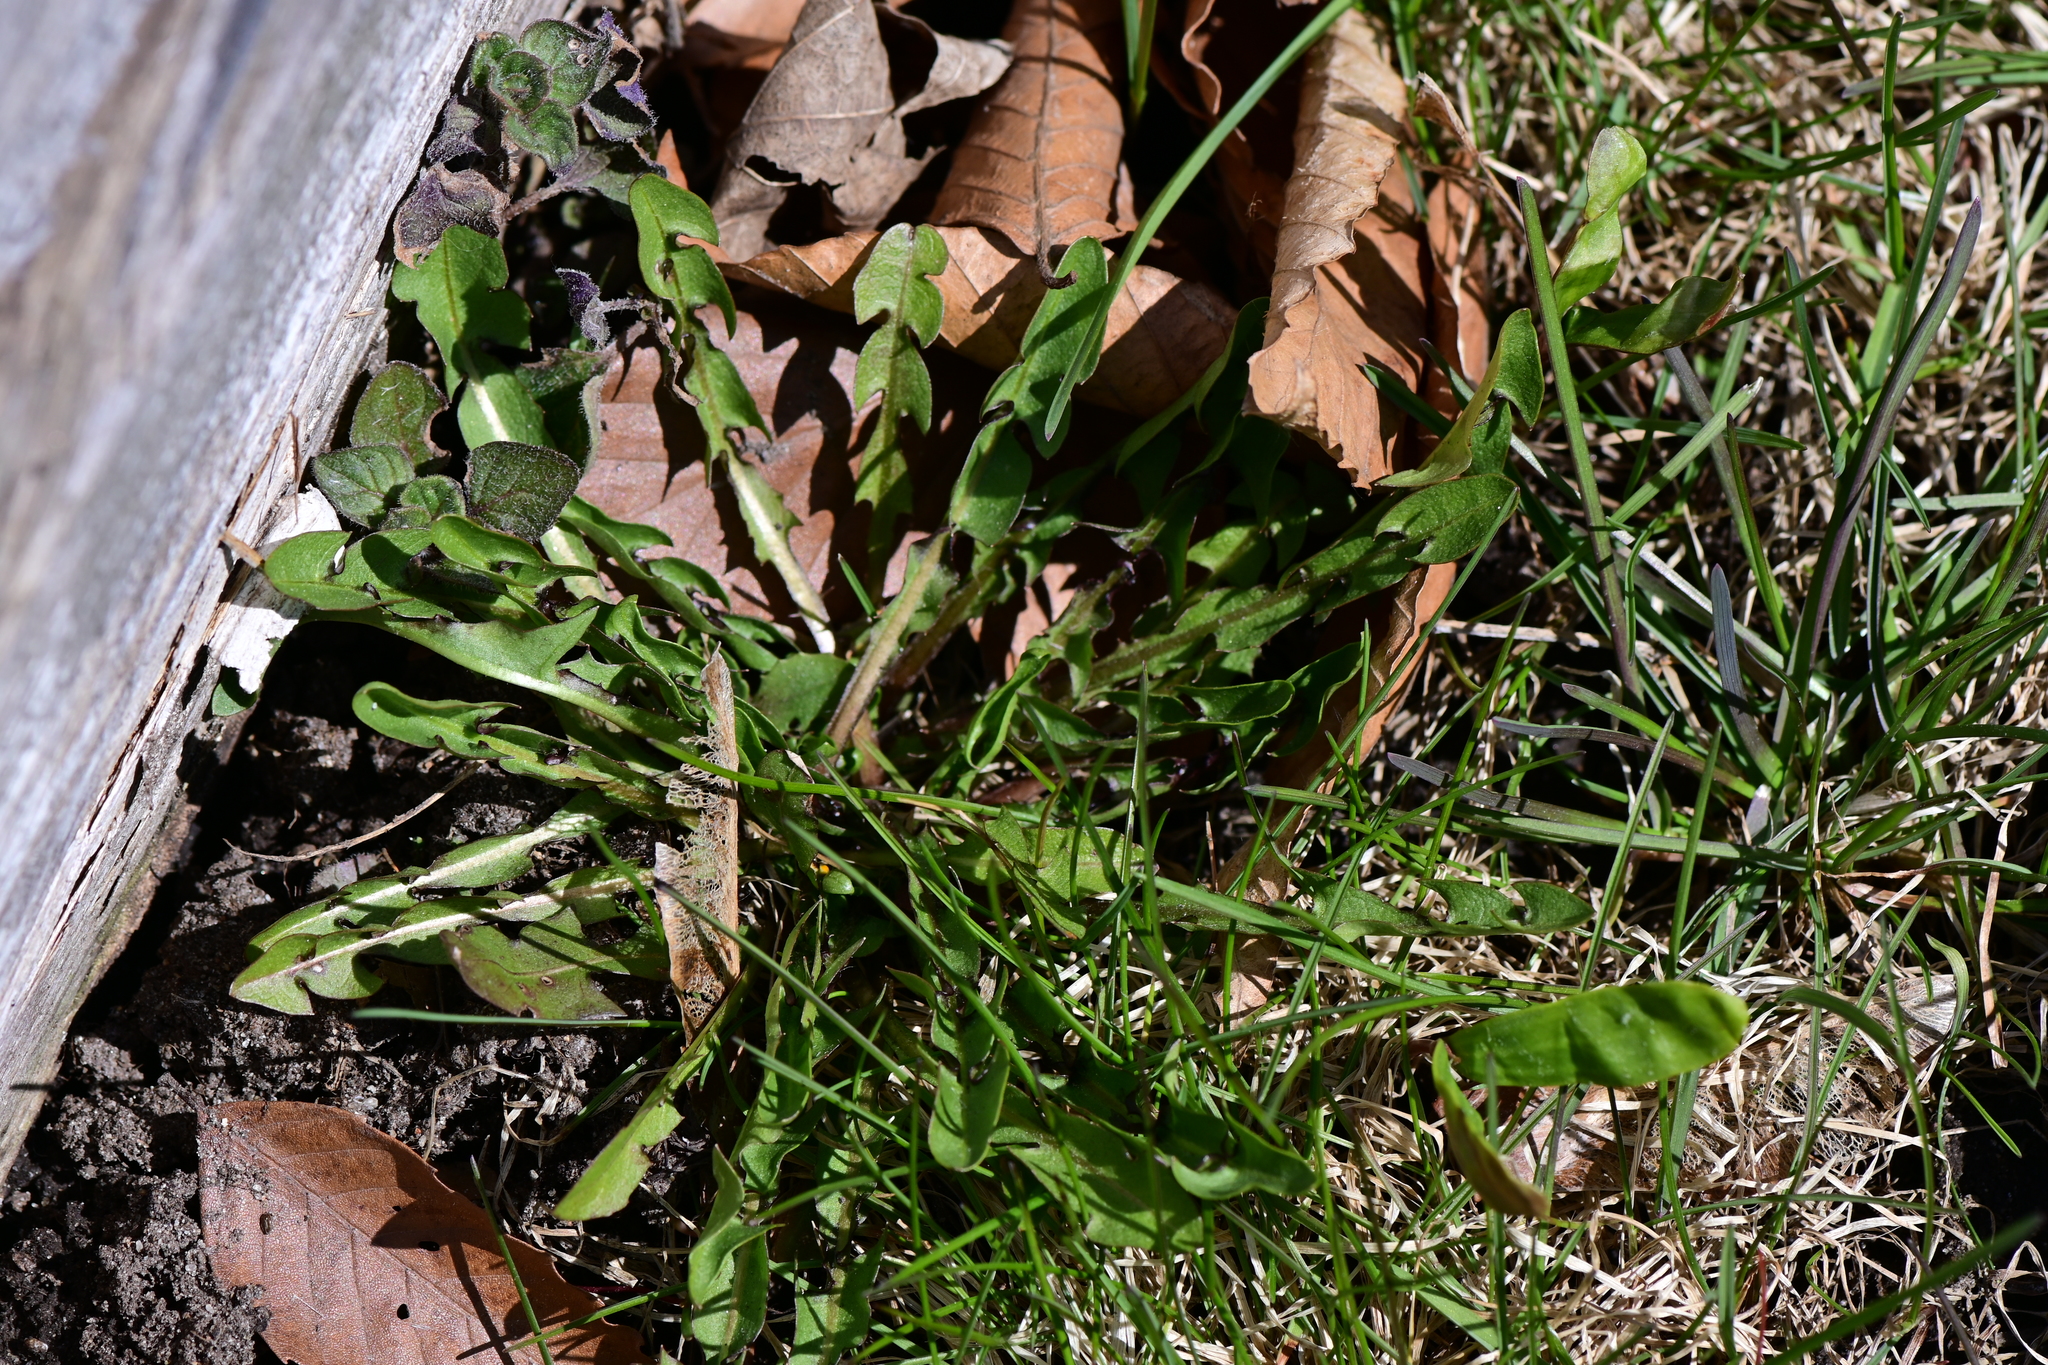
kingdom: Plantae
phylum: Tracheophyta
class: Magnoliopsida
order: Asterales
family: Asteraceae
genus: Taraxacum
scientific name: Taraxacum officinale
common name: Common dandelion
